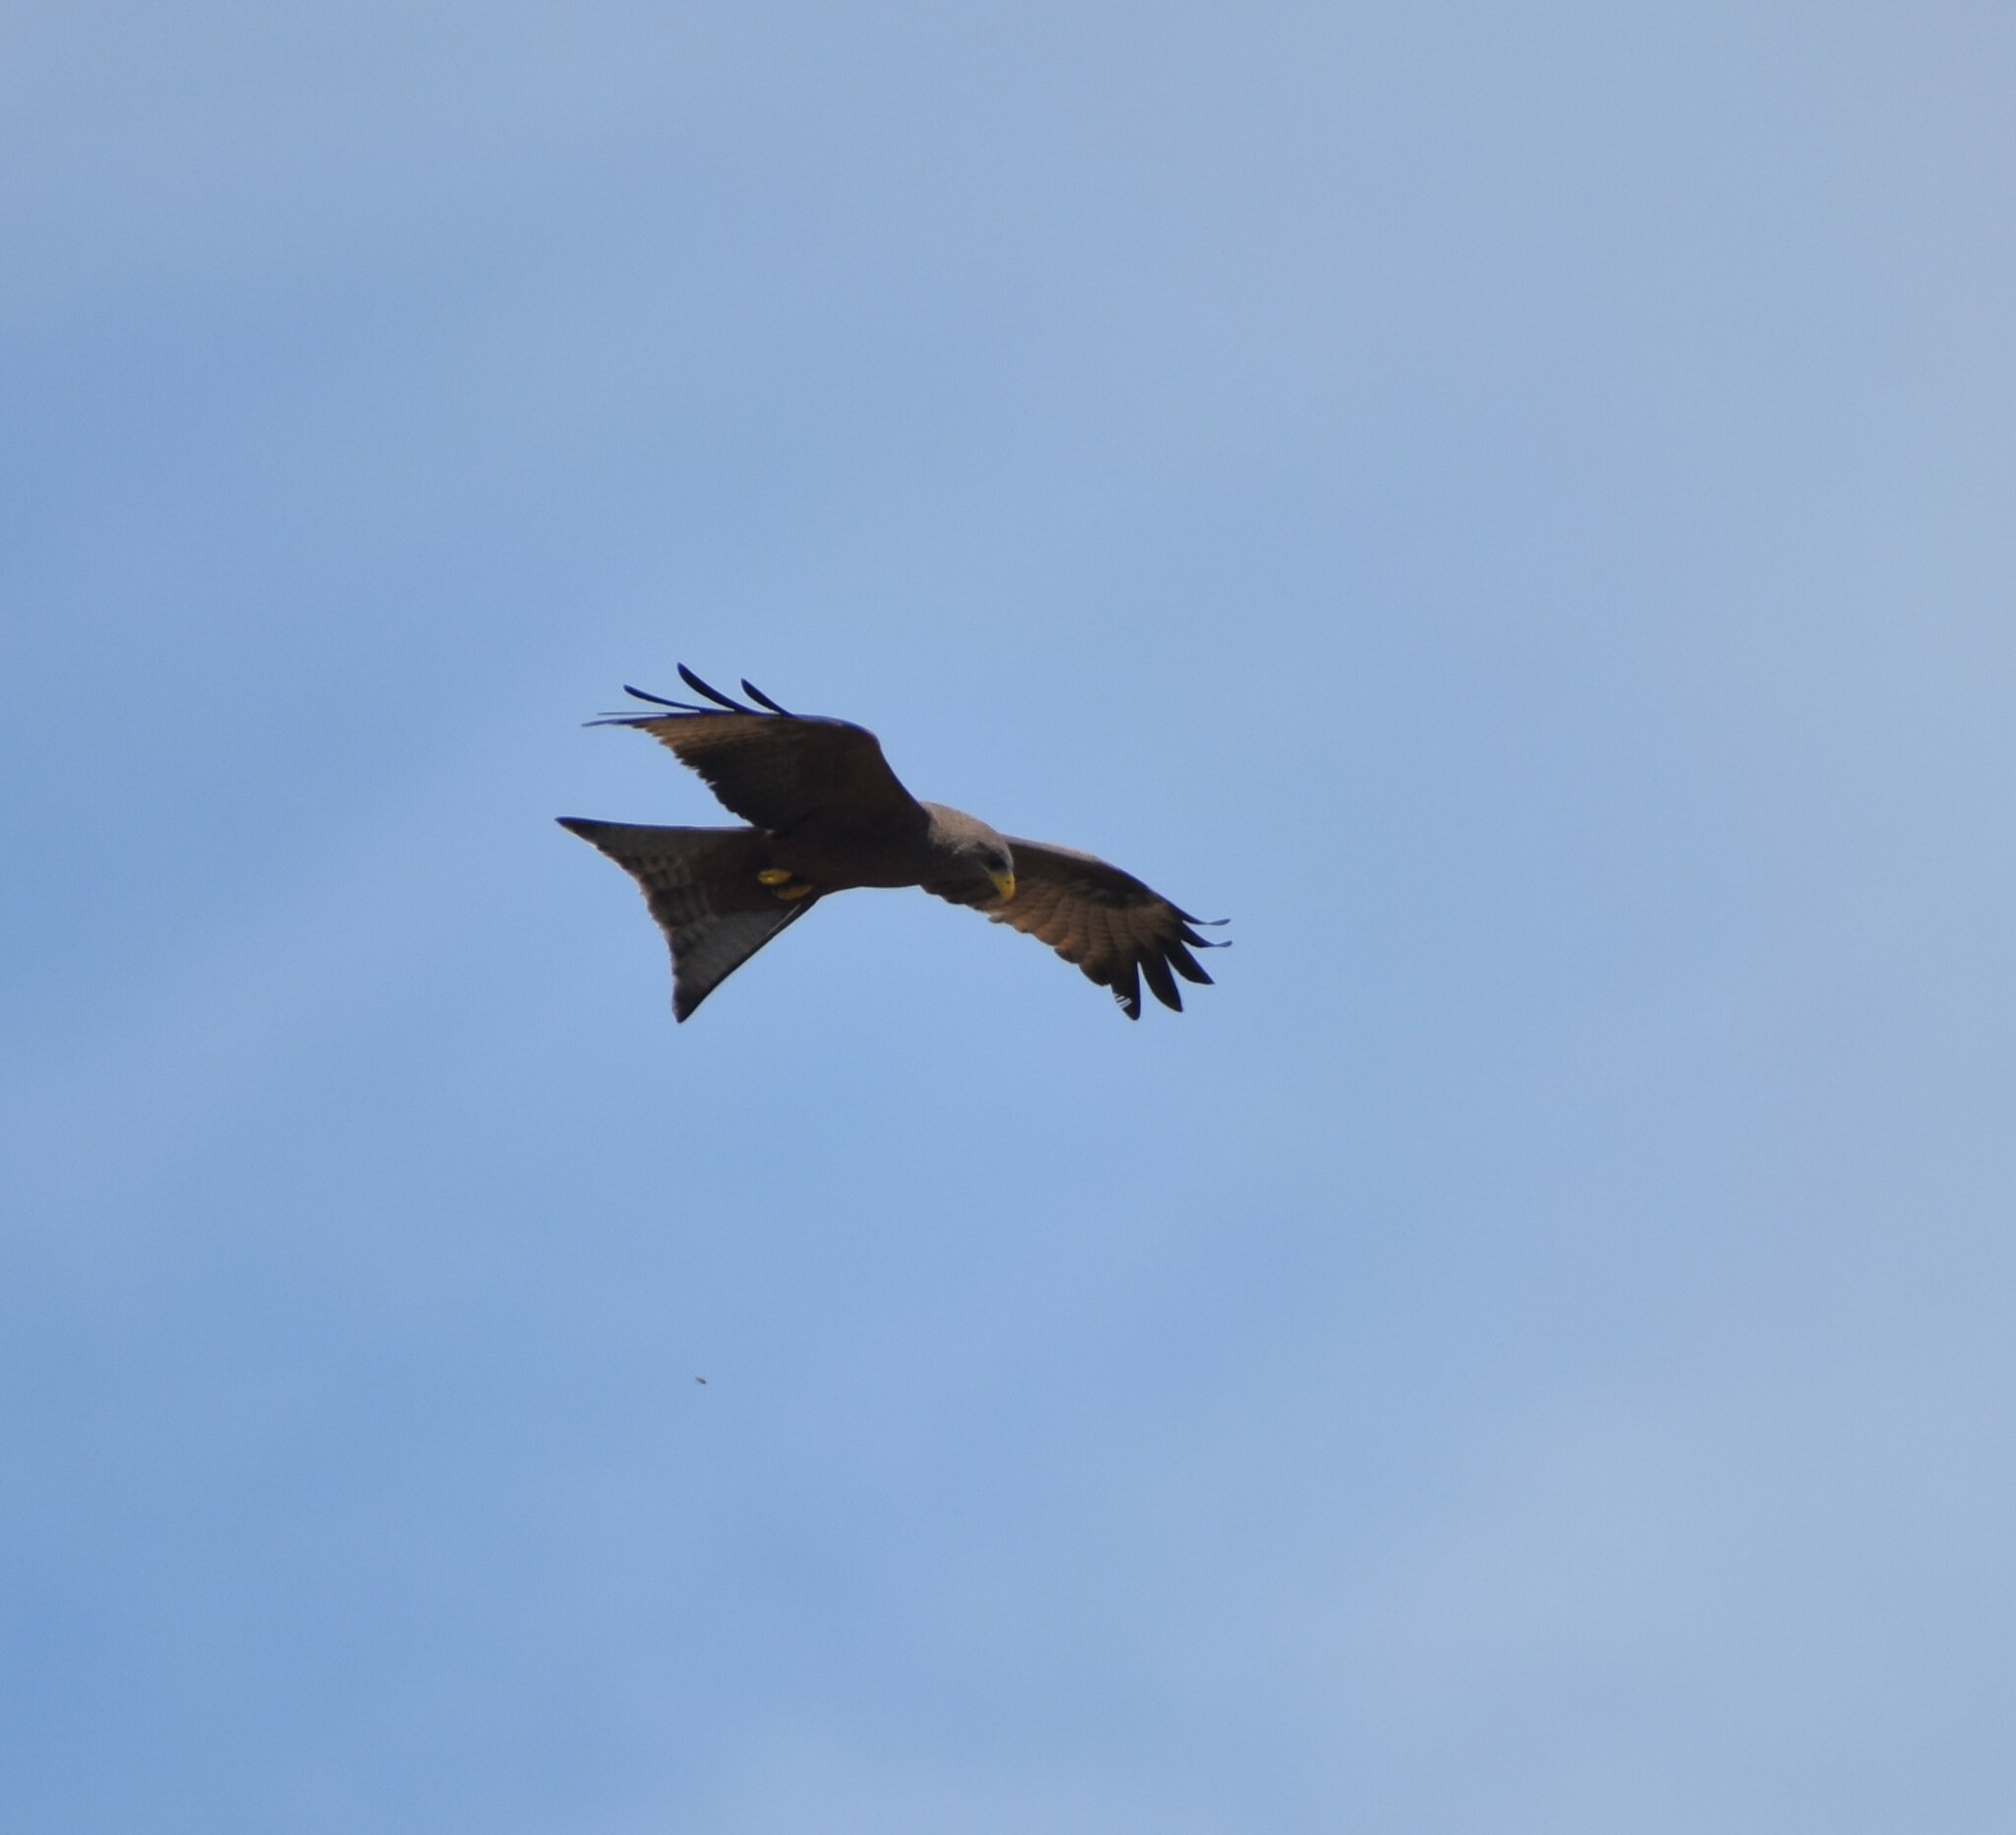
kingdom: Animalia
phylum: Chordata
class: Aves
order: Accipitriformes
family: Accipitridae
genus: Milvus
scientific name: Milvus migrans
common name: Black kite
